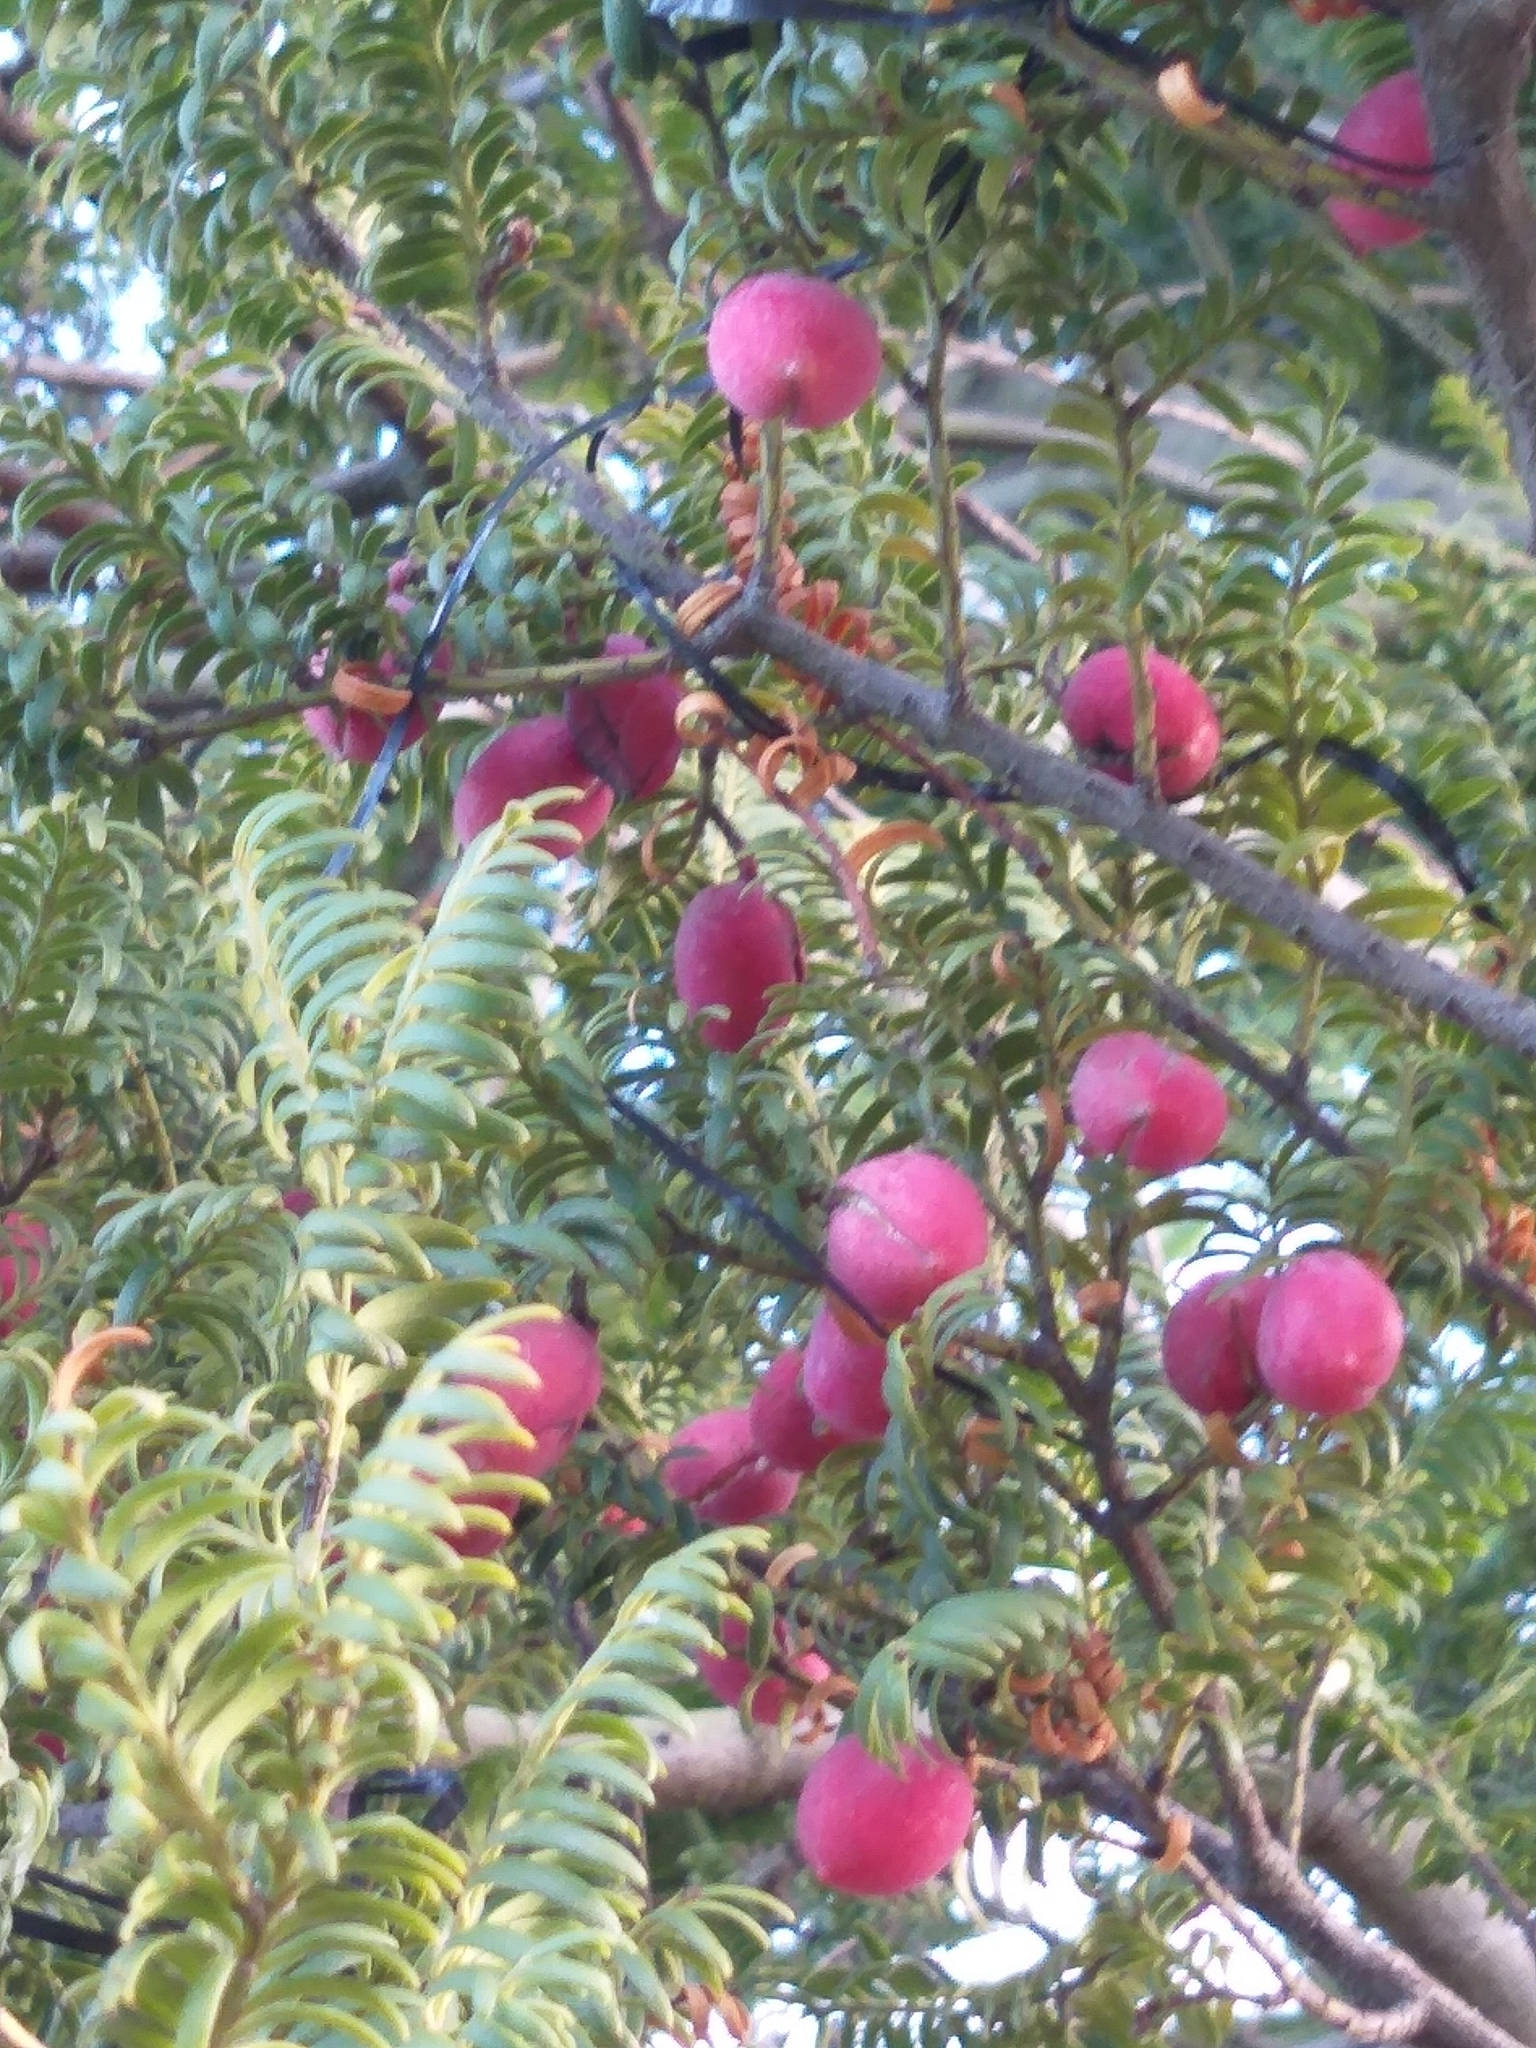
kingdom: Plantae
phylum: Tracheophyta
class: Pinopsida
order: Pinales
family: Podocarpaceae
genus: Prumnopitys
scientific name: Prumnopitys ferruginea
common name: Brown pine
